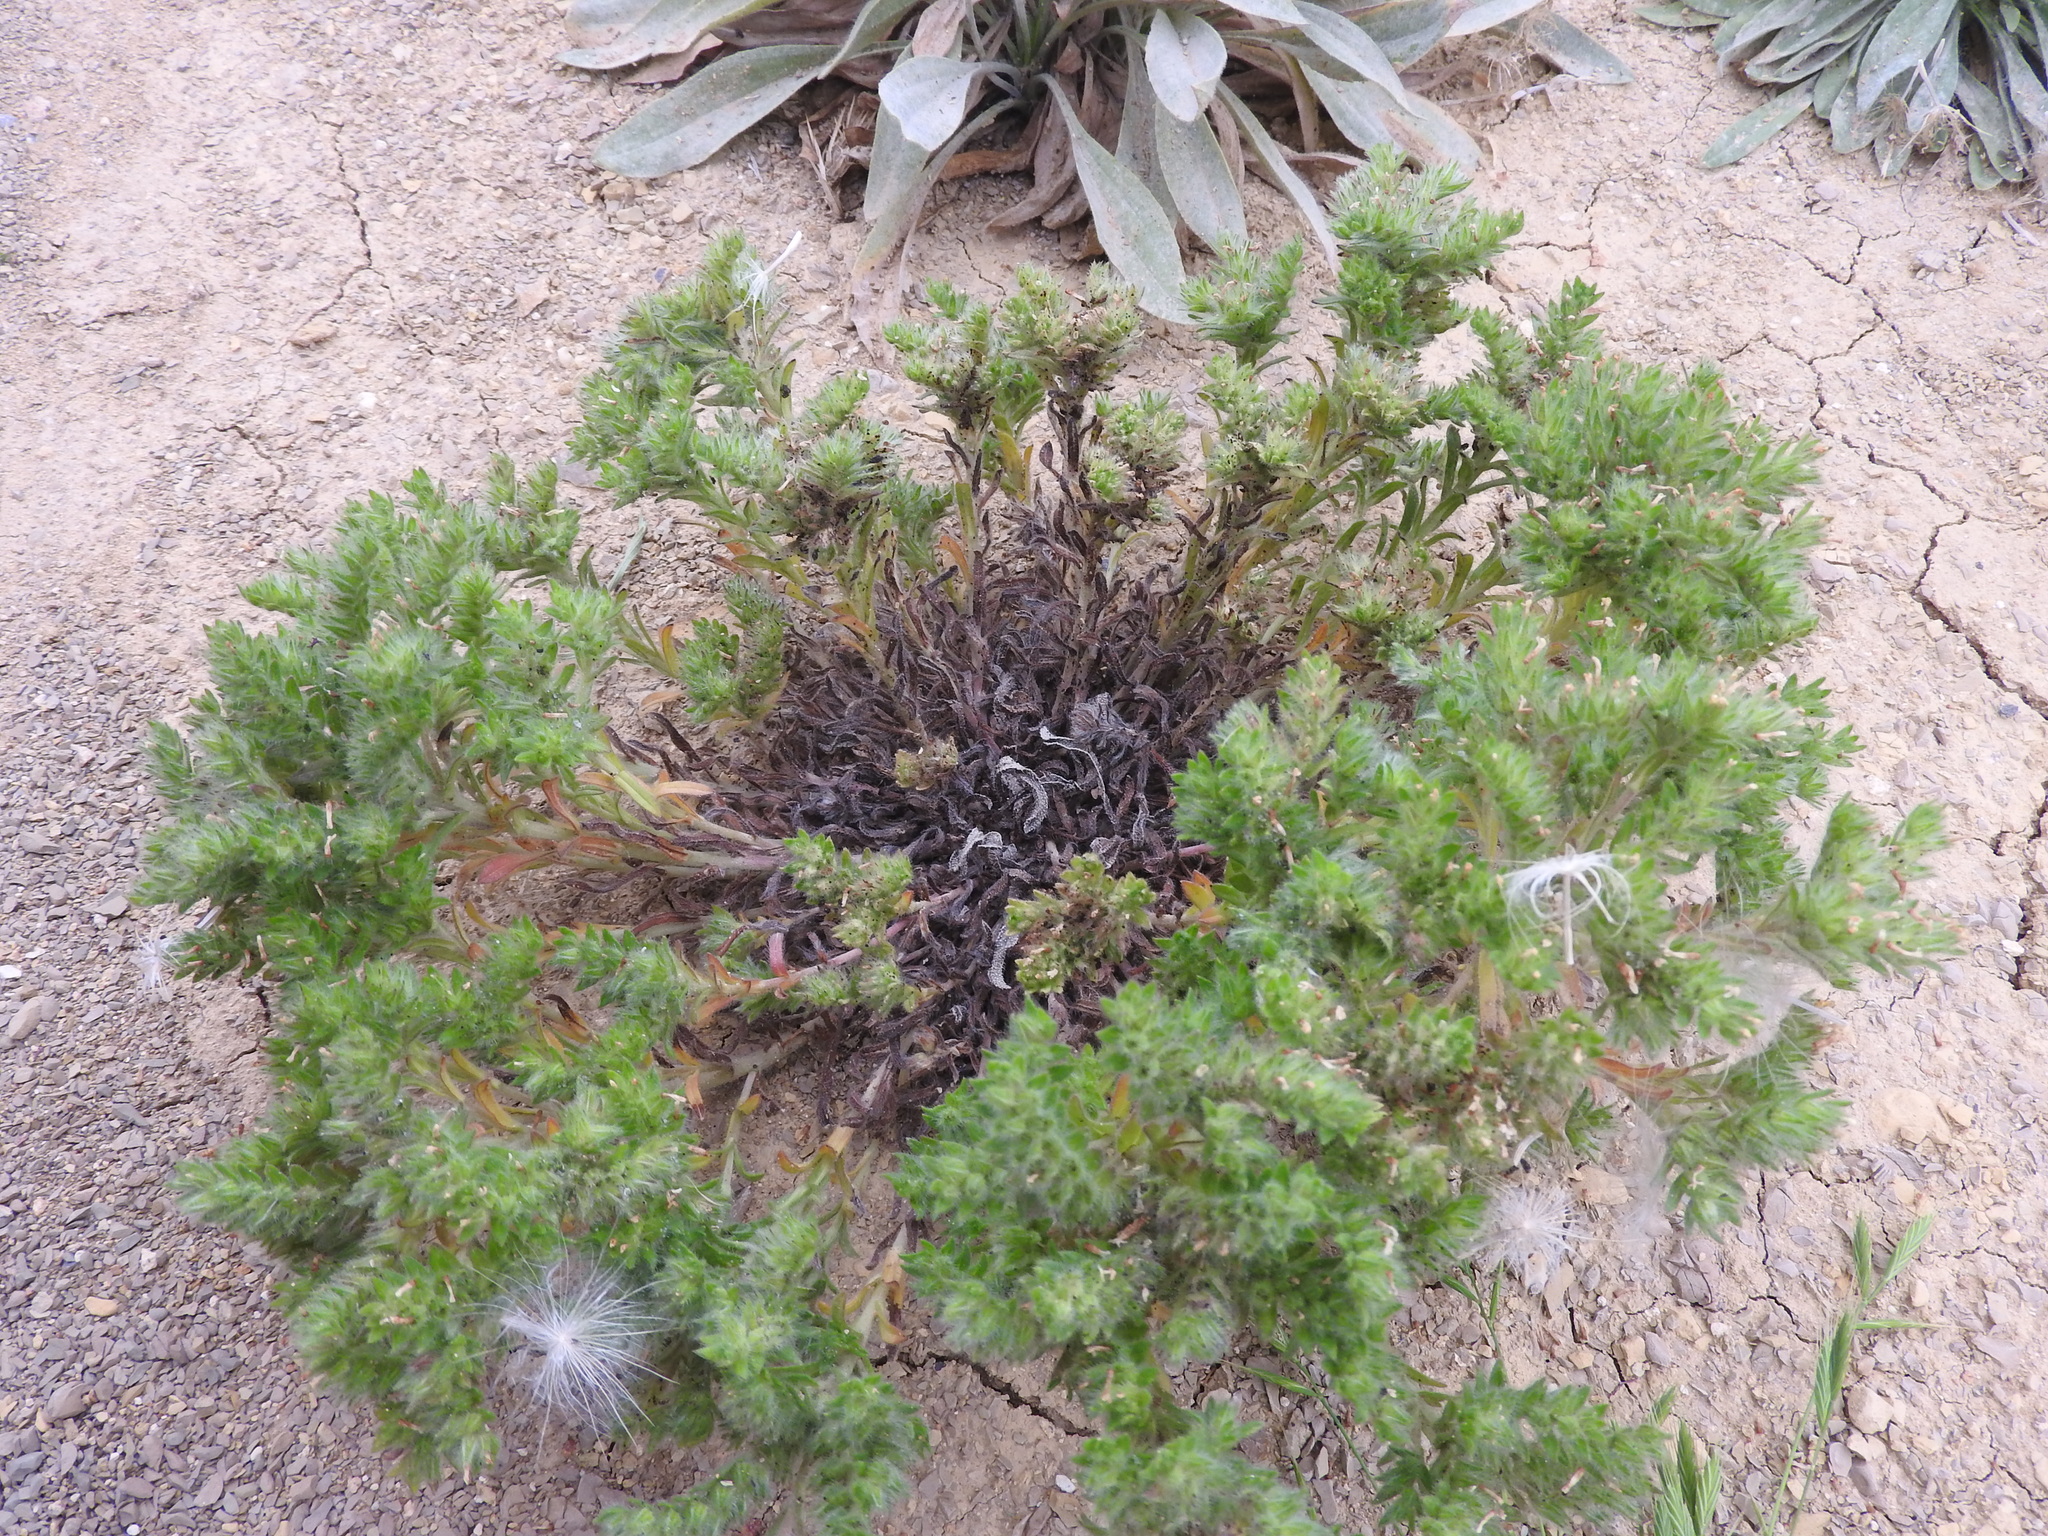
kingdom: Plantae
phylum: Tracheophyta
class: Magnoliopsida
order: Boraginales
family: Boraginaceae
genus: Neatostema
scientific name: Neatostema apulum
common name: Hairy sheepweed
